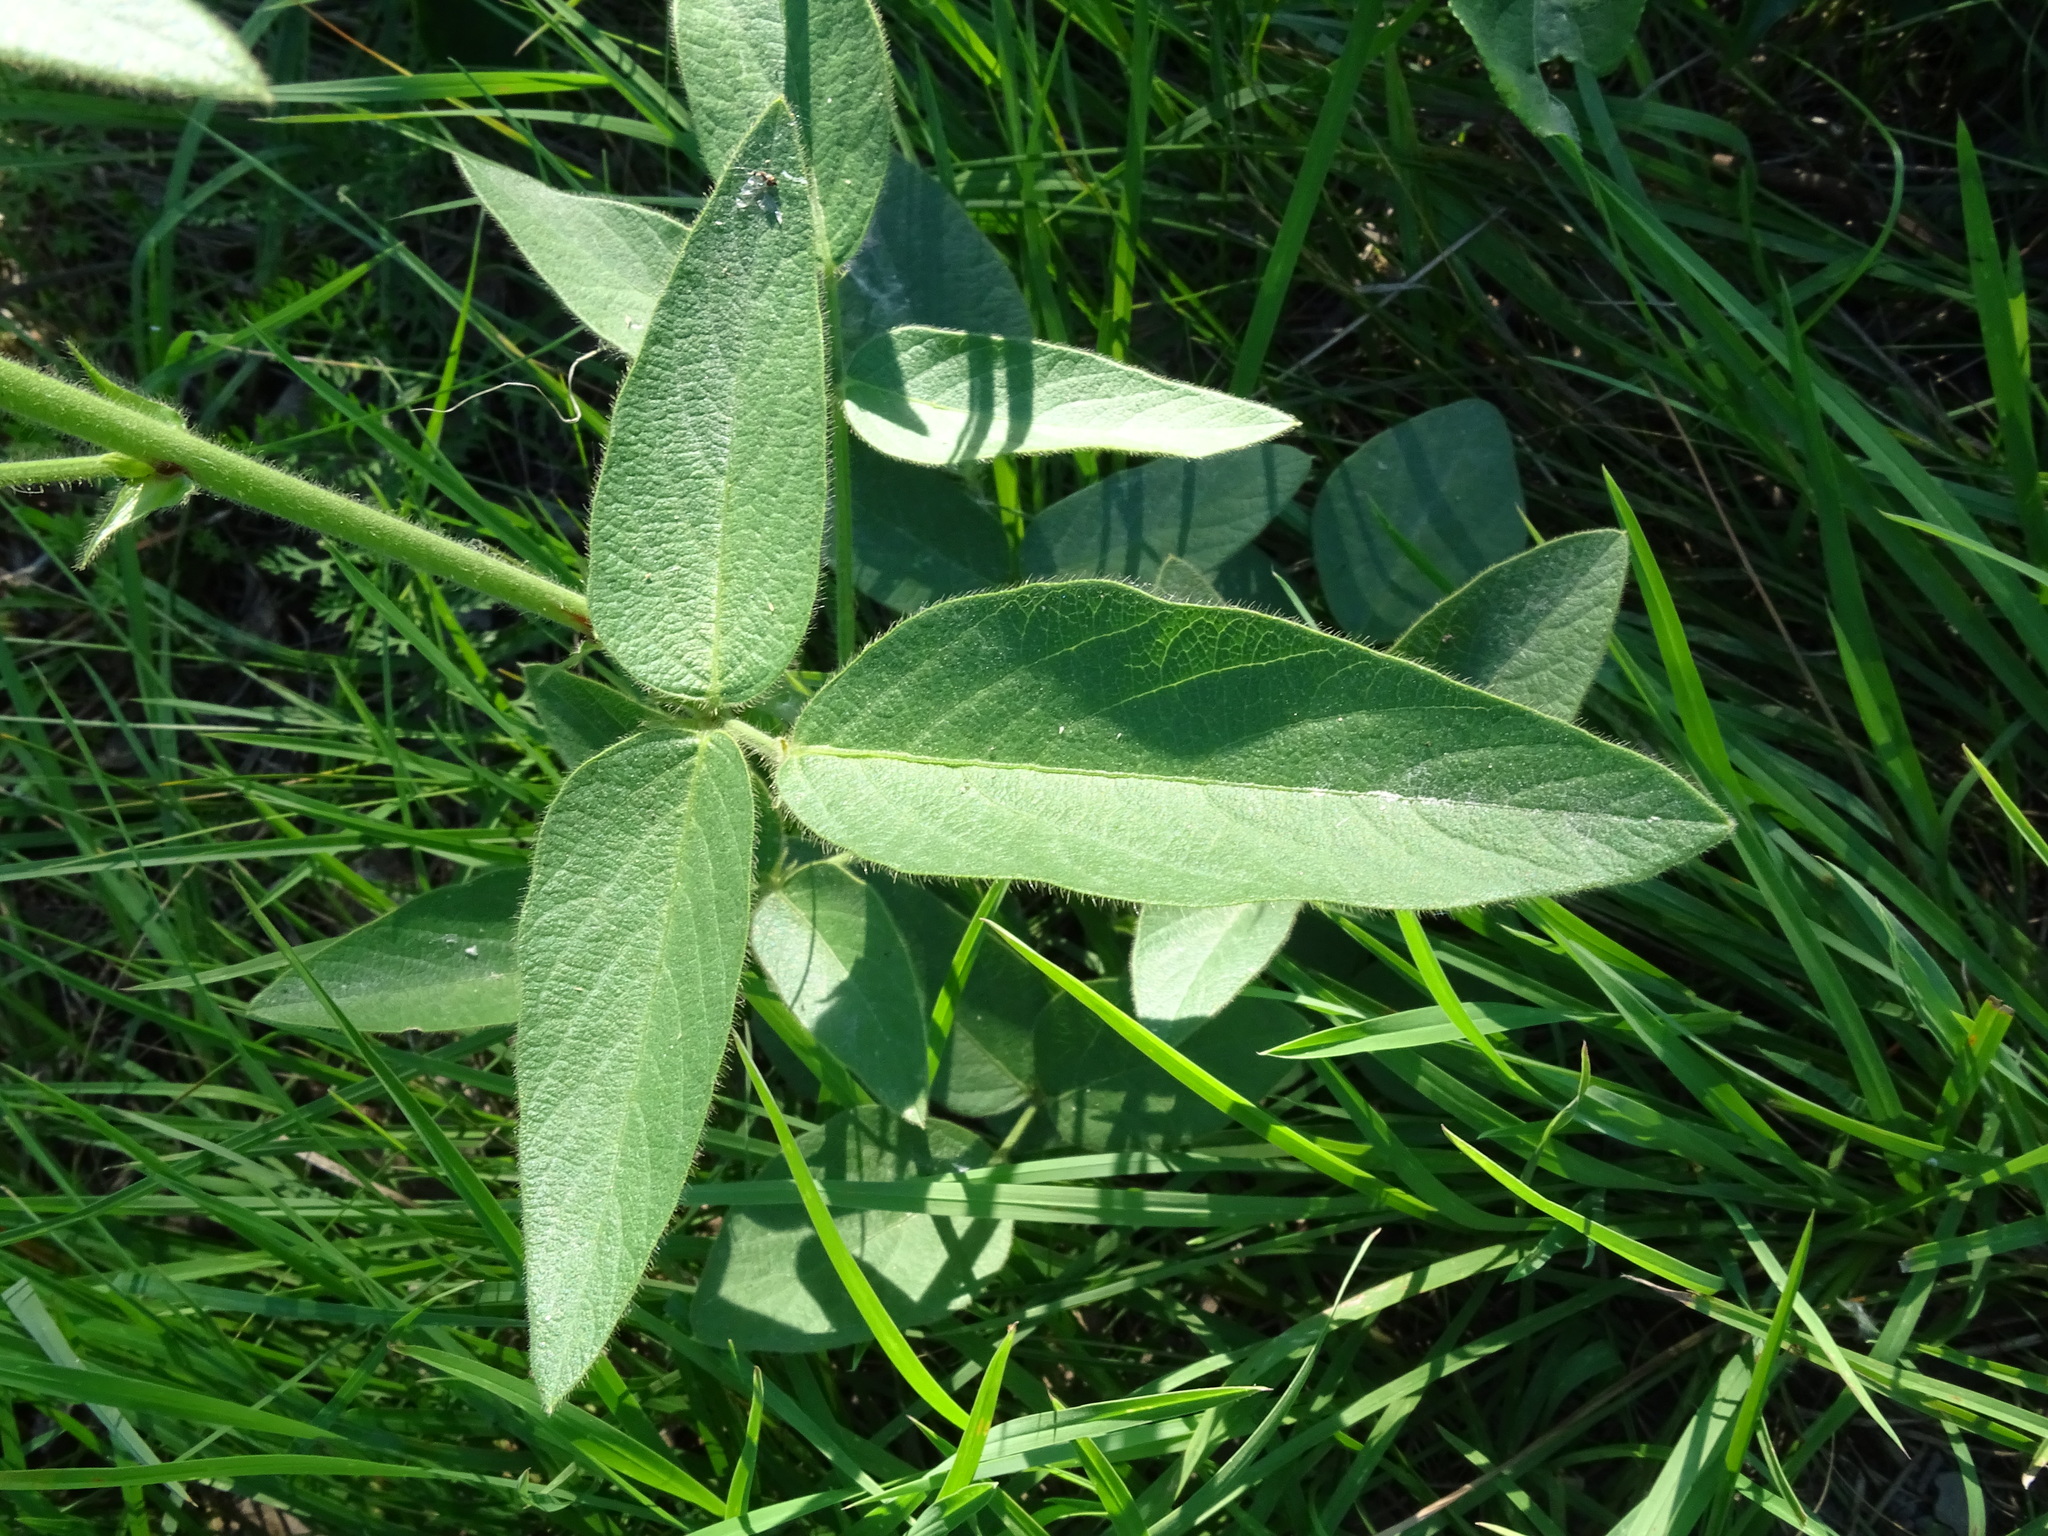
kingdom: Plantae
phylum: Tracheophyta
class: Magnoliopsida
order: Fabales
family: Fabaceae
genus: Desmodium
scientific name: Desmodium illinoense
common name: Illinois tick-clover
